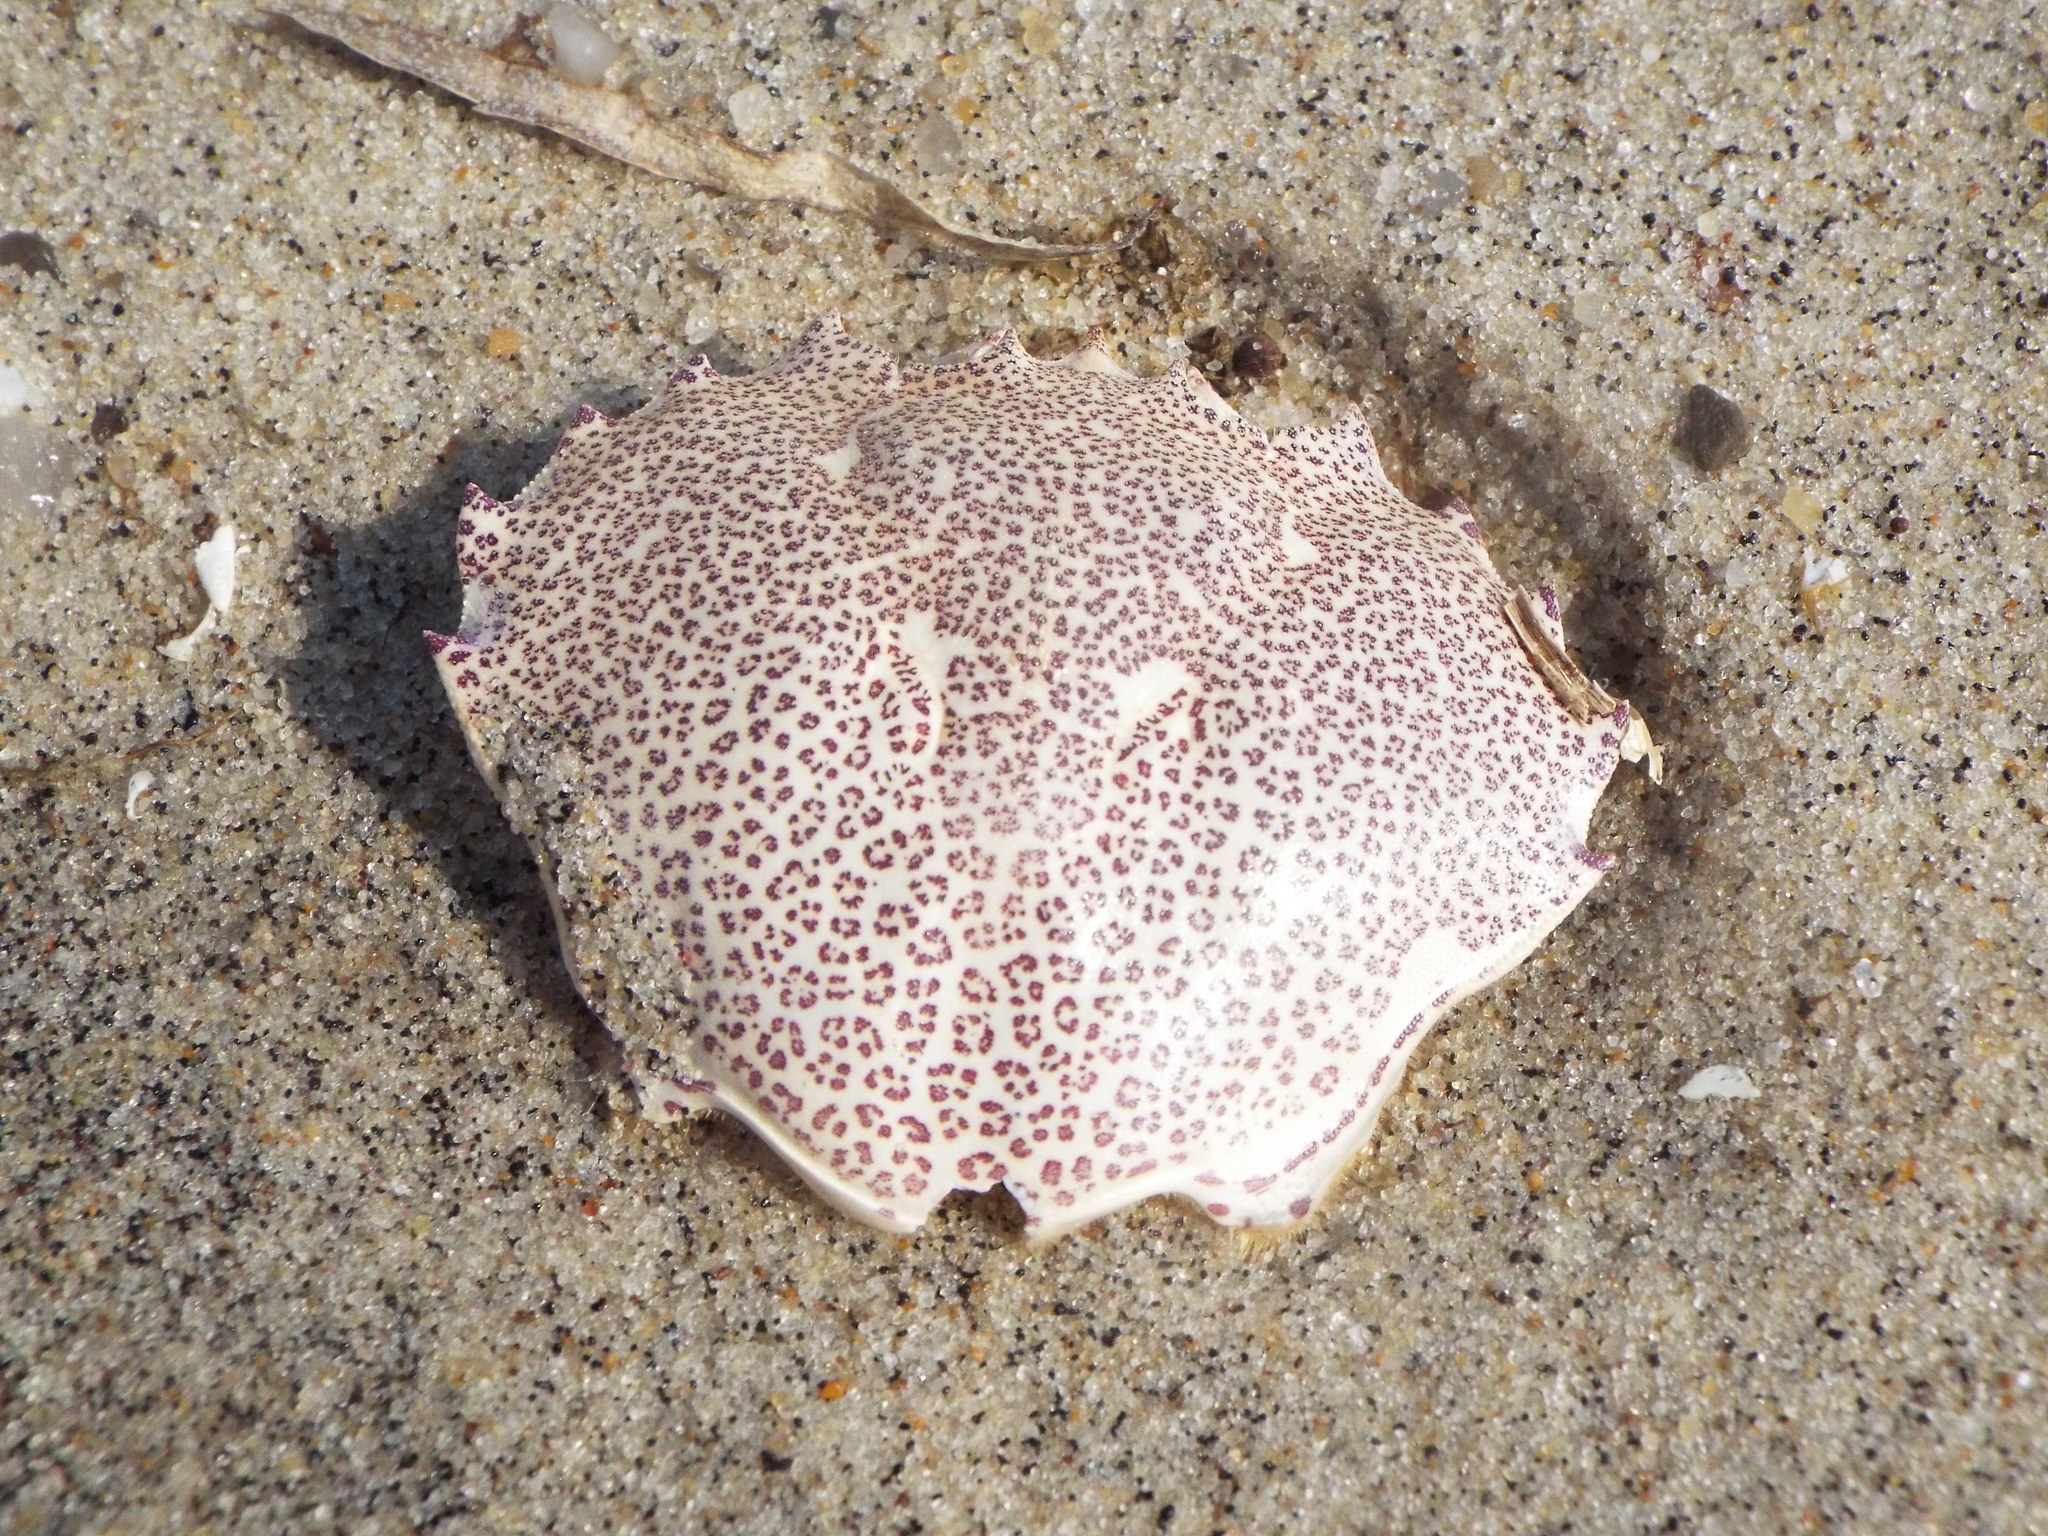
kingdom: Animalia
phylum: Arthropoda
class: Malacostraca
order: Decapoda
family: Ovalipidae
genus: Ovalipes
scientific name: Ovalipes ocellatus
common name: Lady crab
